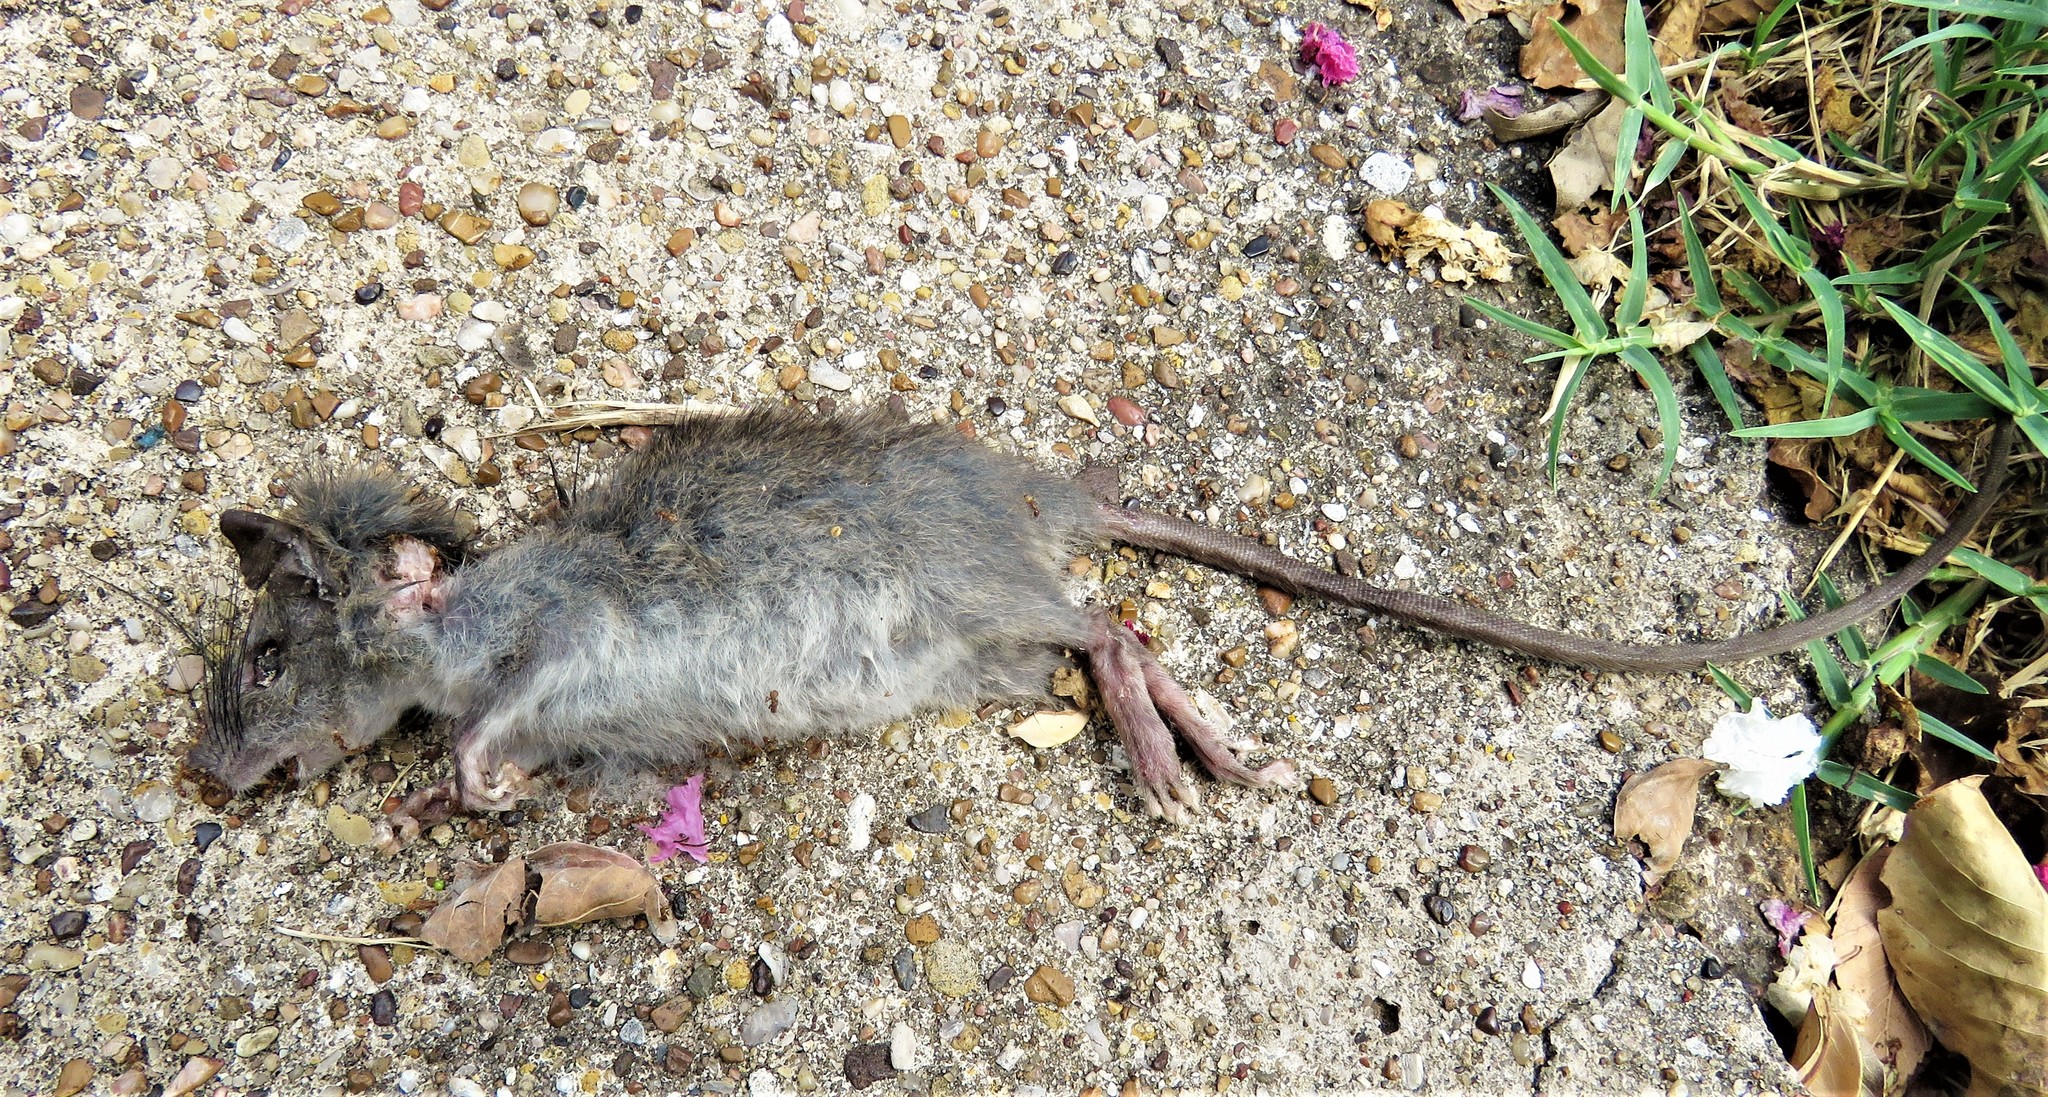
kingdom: Animalia
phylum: Chordata
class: Mammalia
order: Rodentia
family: Muridae
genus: Rattus
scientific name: Rattus rattus
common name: Black rat
